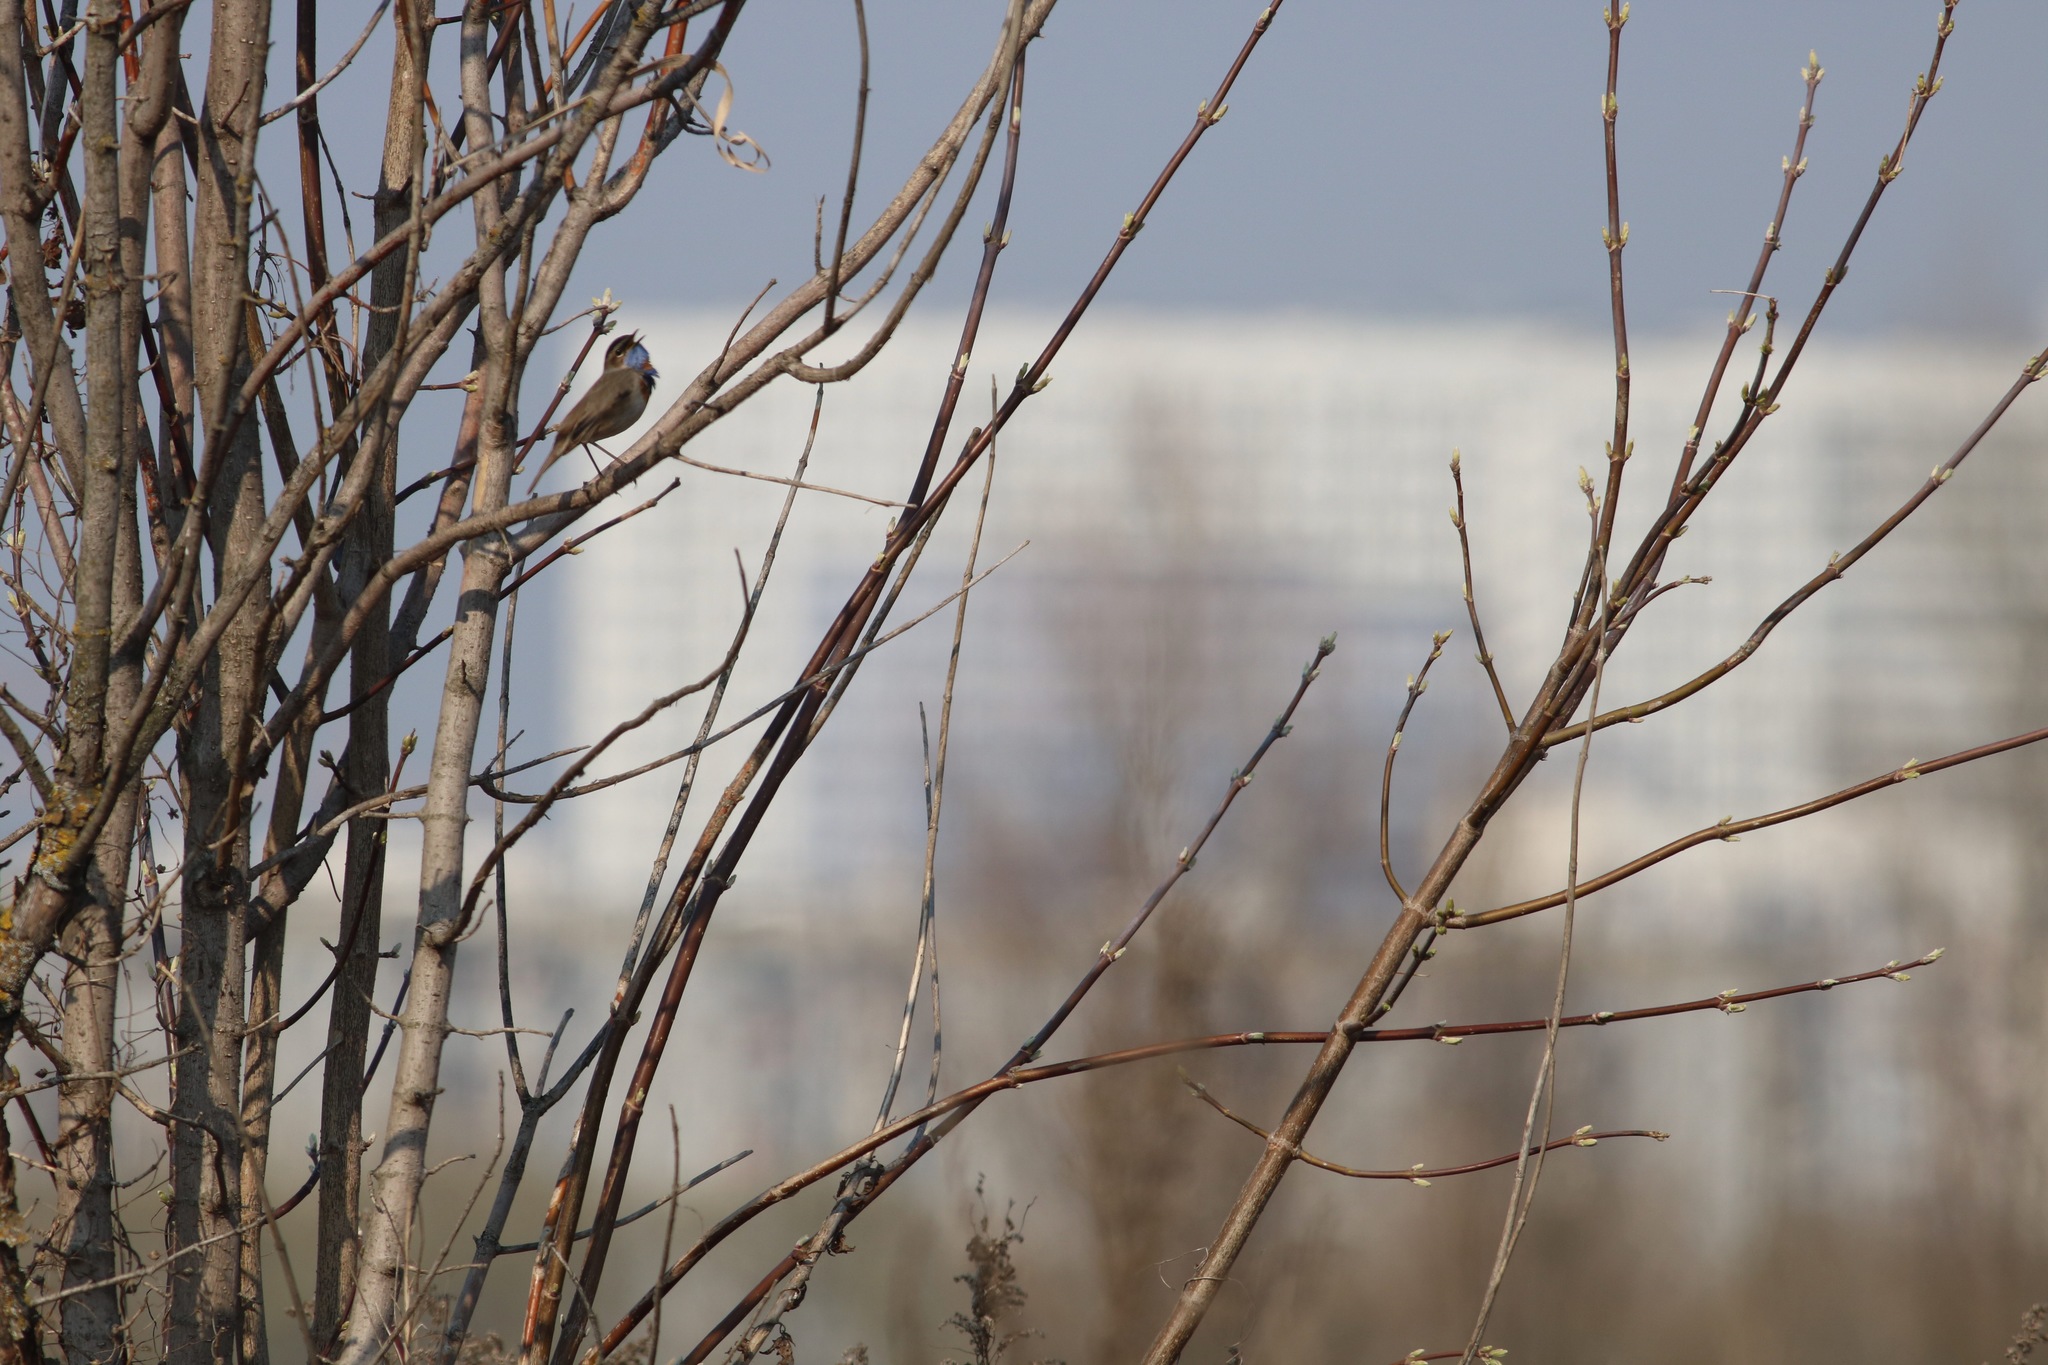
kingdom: Animalia
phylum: Chordata
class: Aves
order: Passeriformes
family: Muscicapidae
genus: Luscinia
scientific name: Luscinia svecica
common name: Bluethroat
